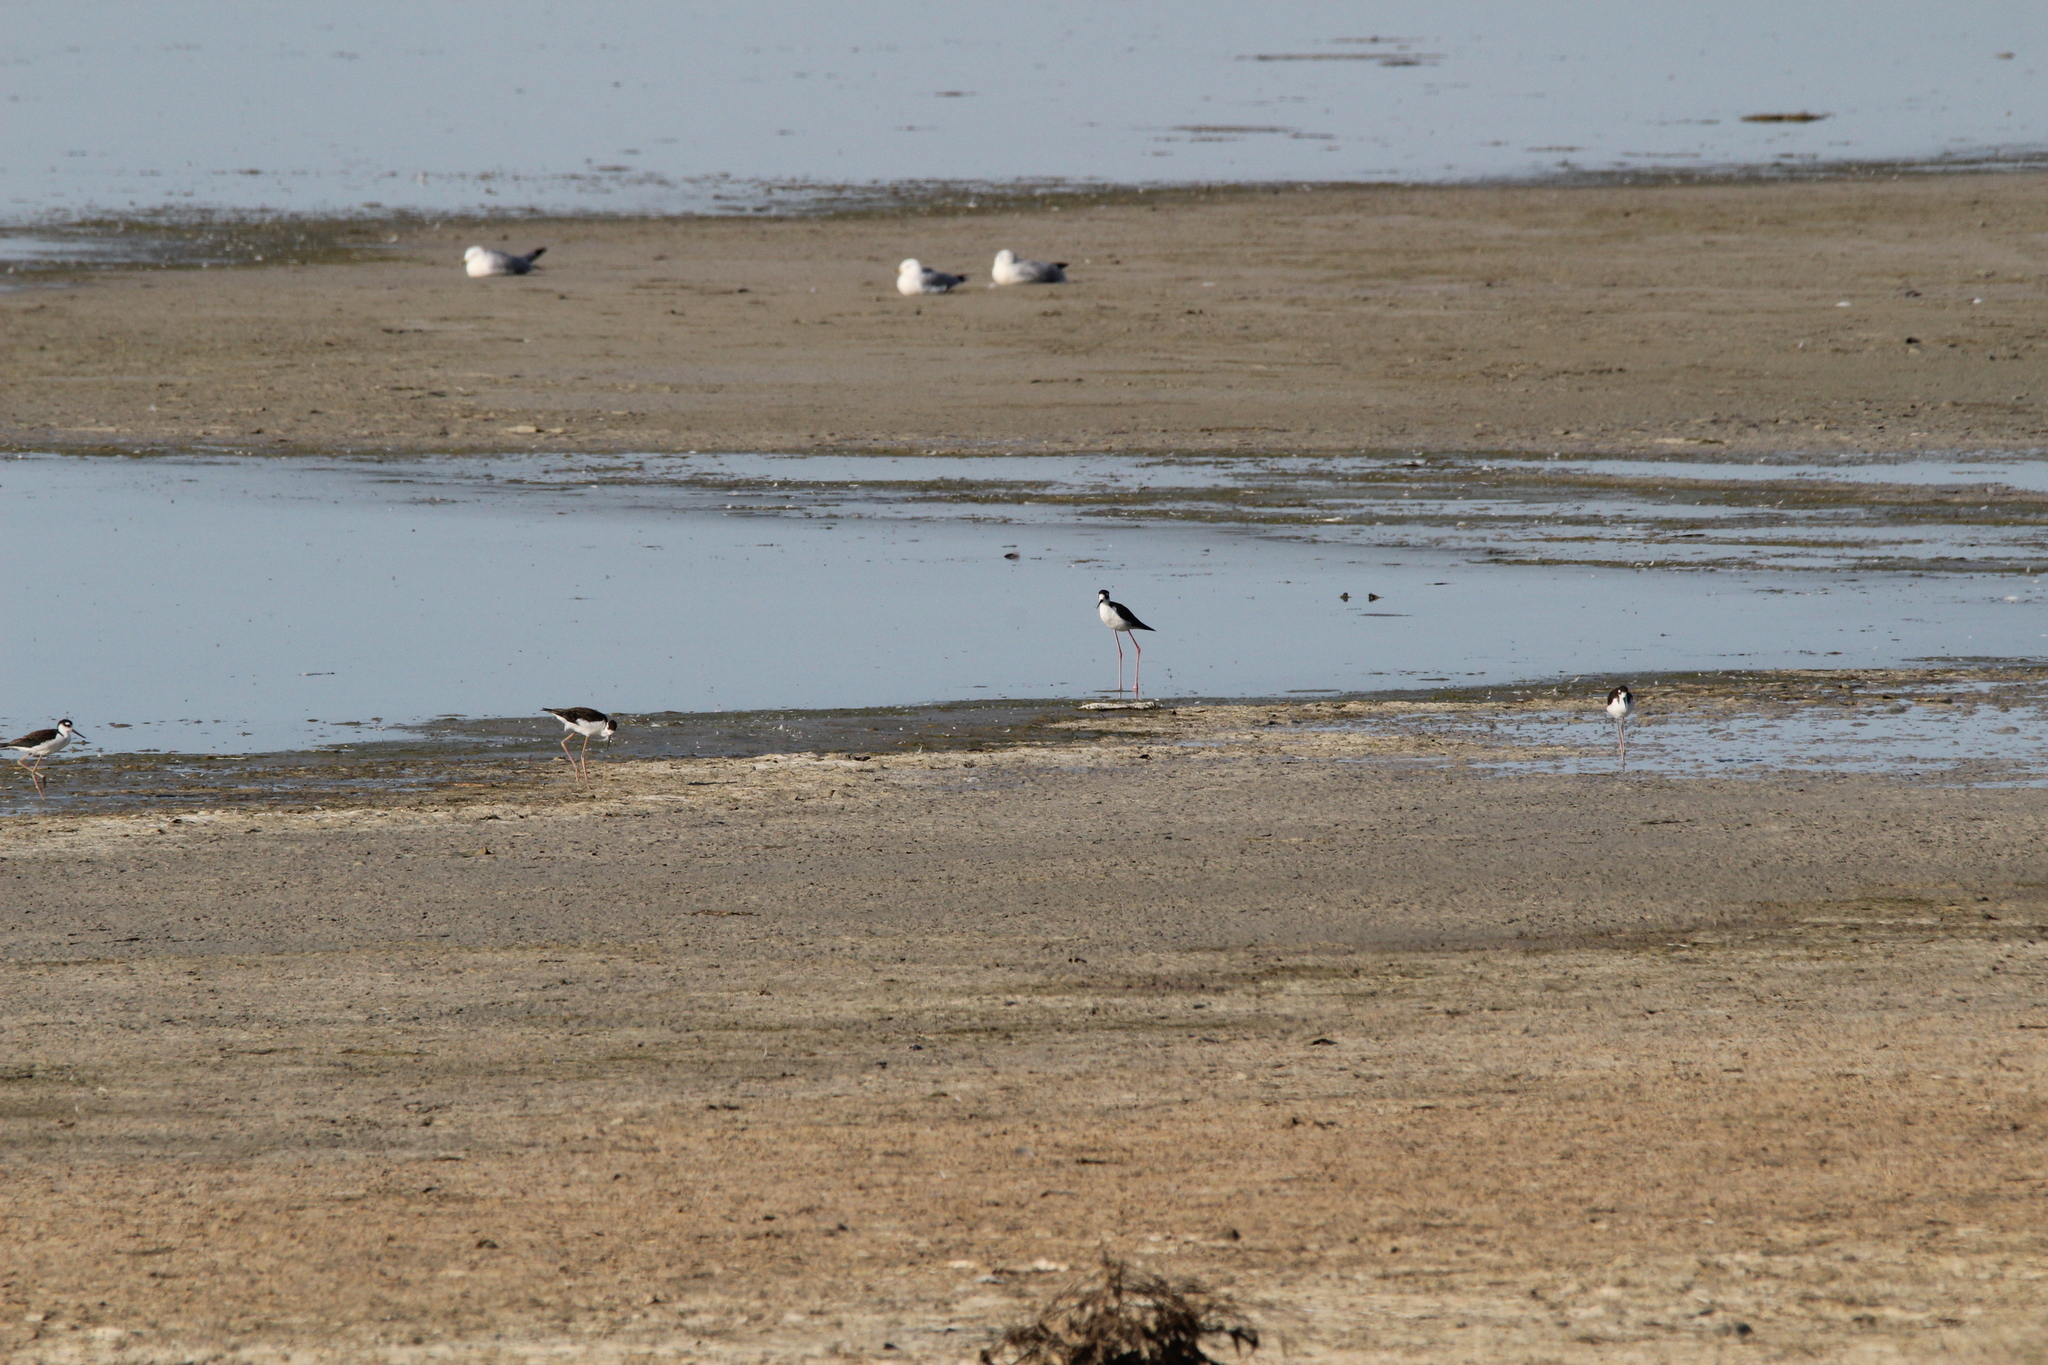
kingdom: Animalia
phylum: Chordata
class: Aves
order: Charadriiformes
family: Recurvirostridae
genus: Himantopus
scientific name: Himantopus mexicanus
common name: Black-necked stilt
